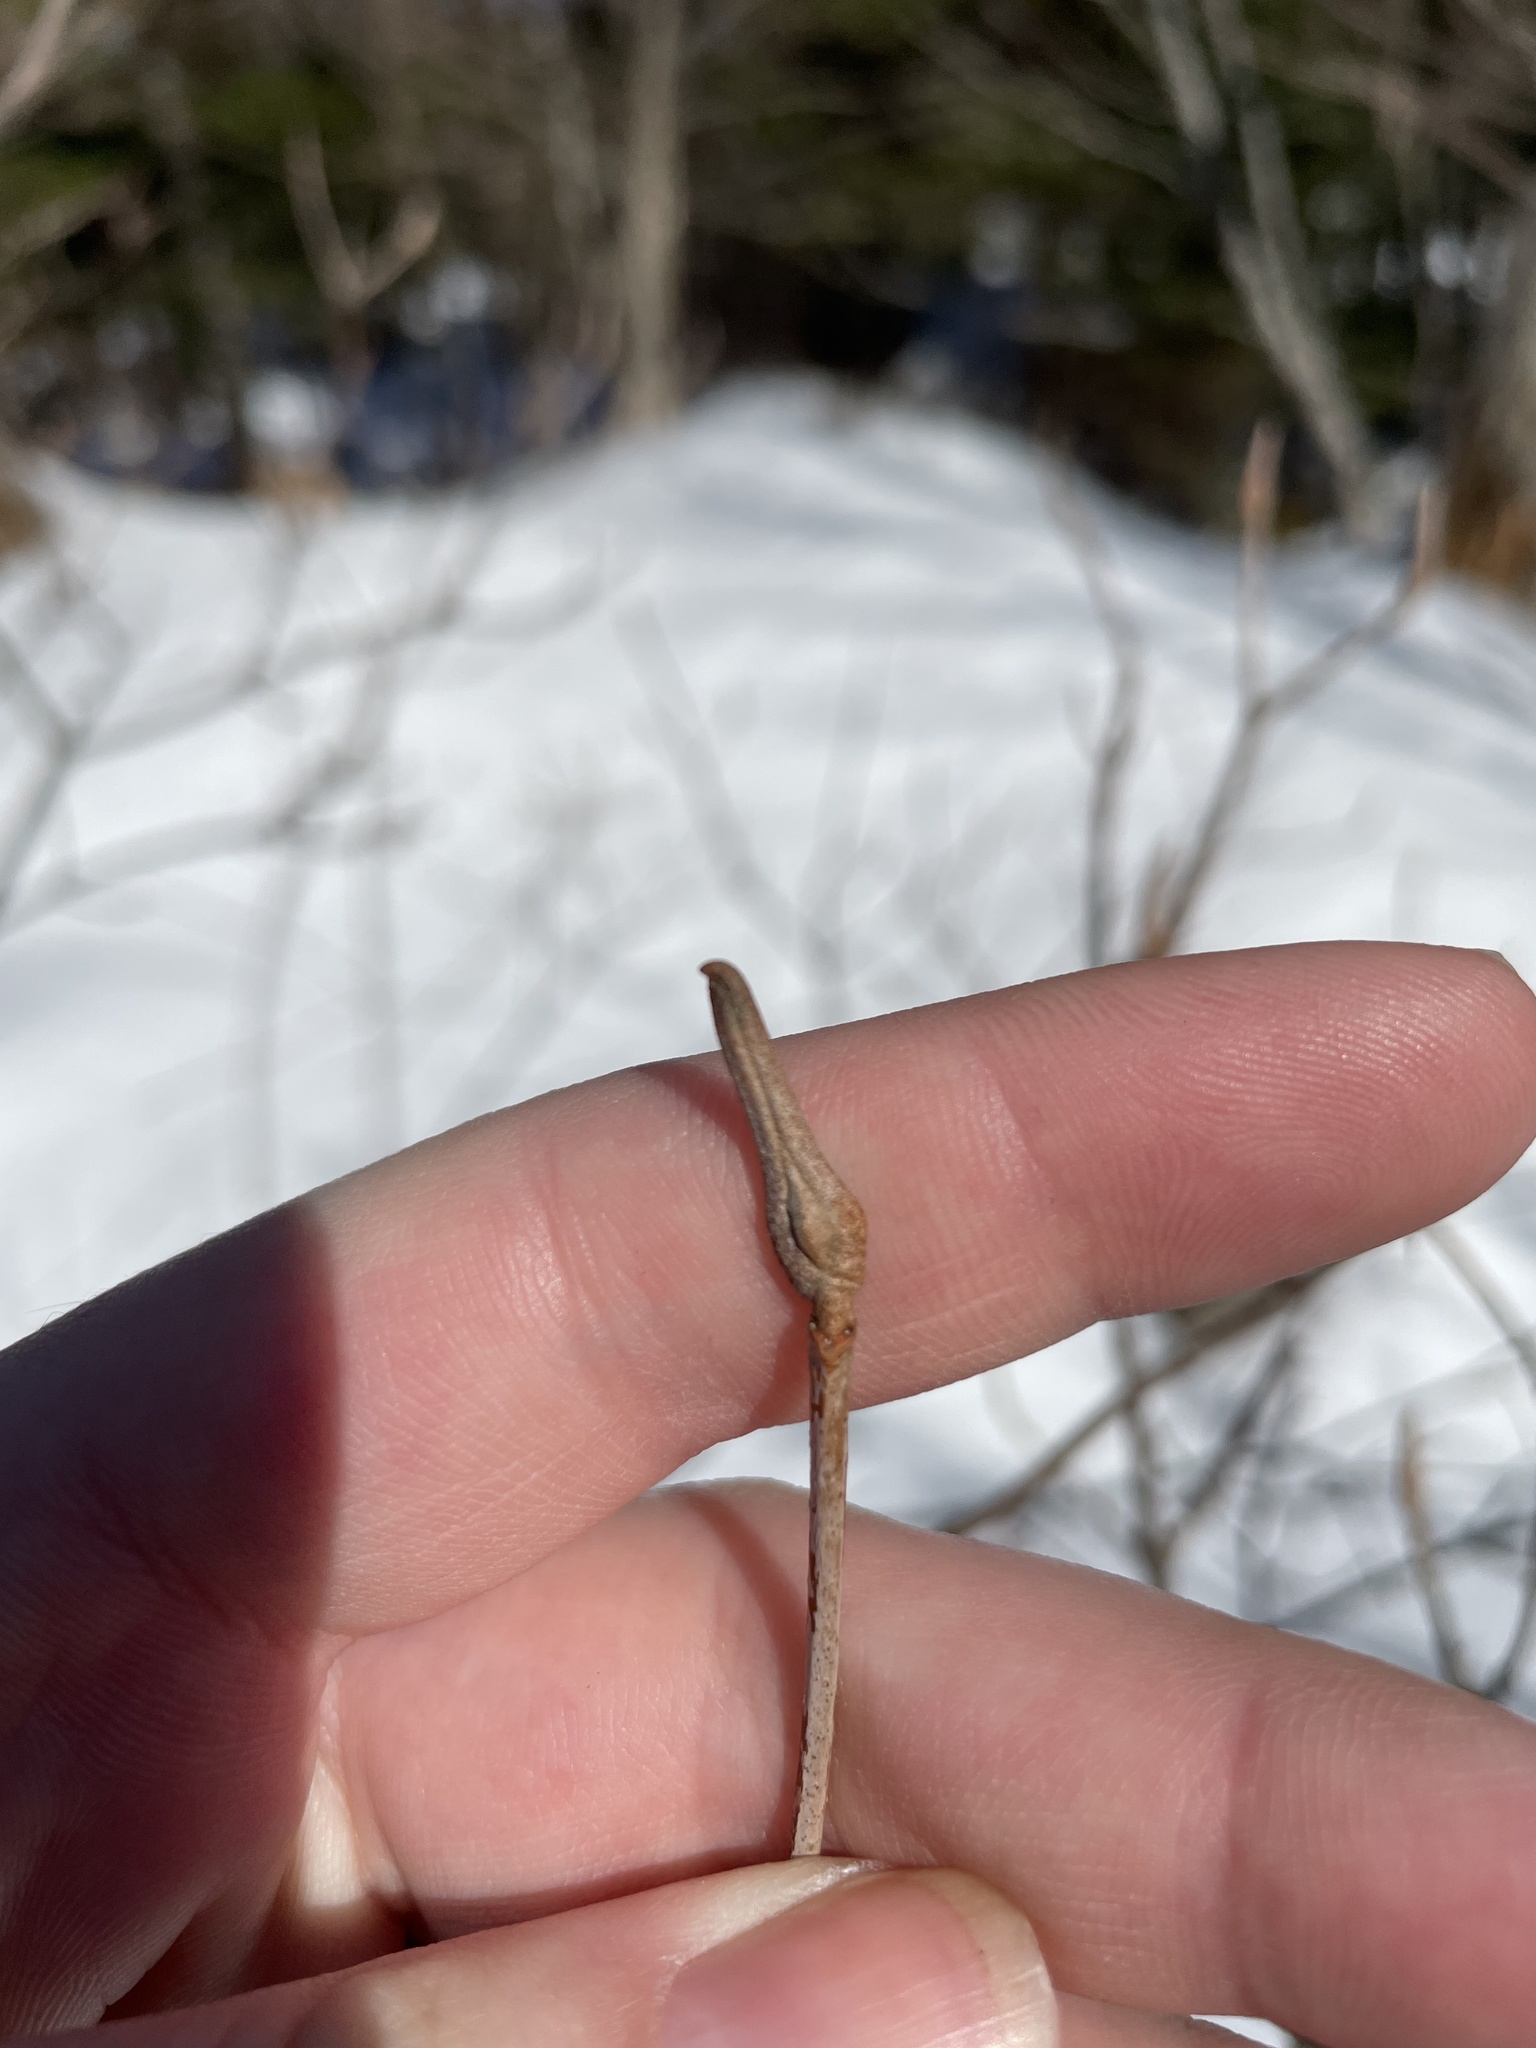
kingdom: Plantae
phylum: Tracheophyta
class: Magnoliopsida
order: Dipsacales
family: Viburnaceae
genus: Viburnum
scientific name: Viburnum cassinoides
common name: Swamp haw
